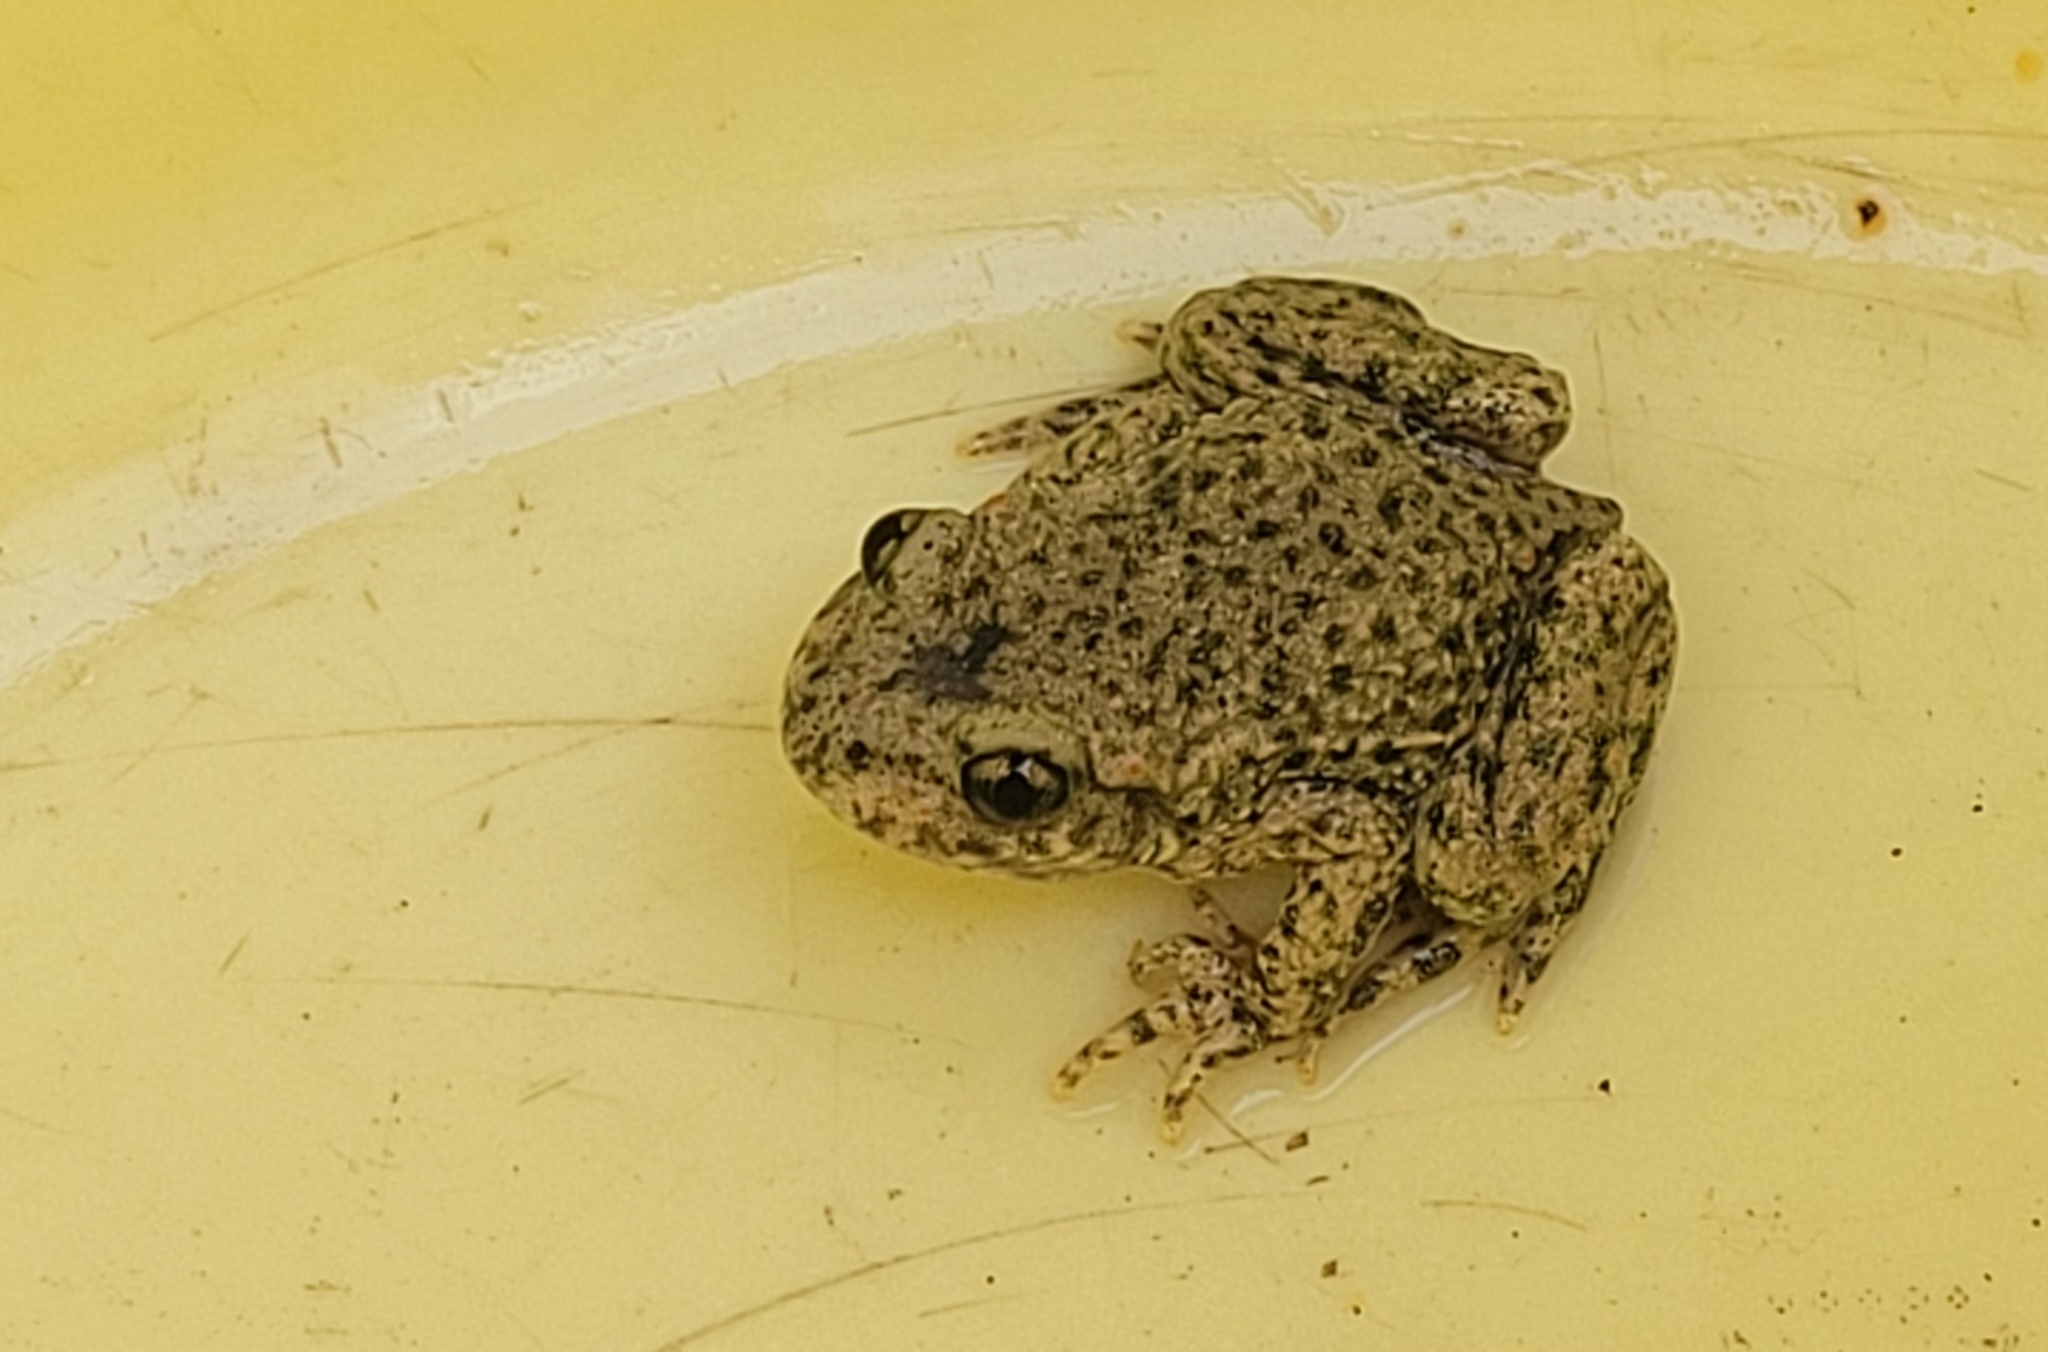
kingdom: Animalia
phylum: Chordata
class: Amphibia
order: Anura
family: Alytidae
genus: Alytes
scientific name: Alytes obstetricans
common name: Midwife toad
